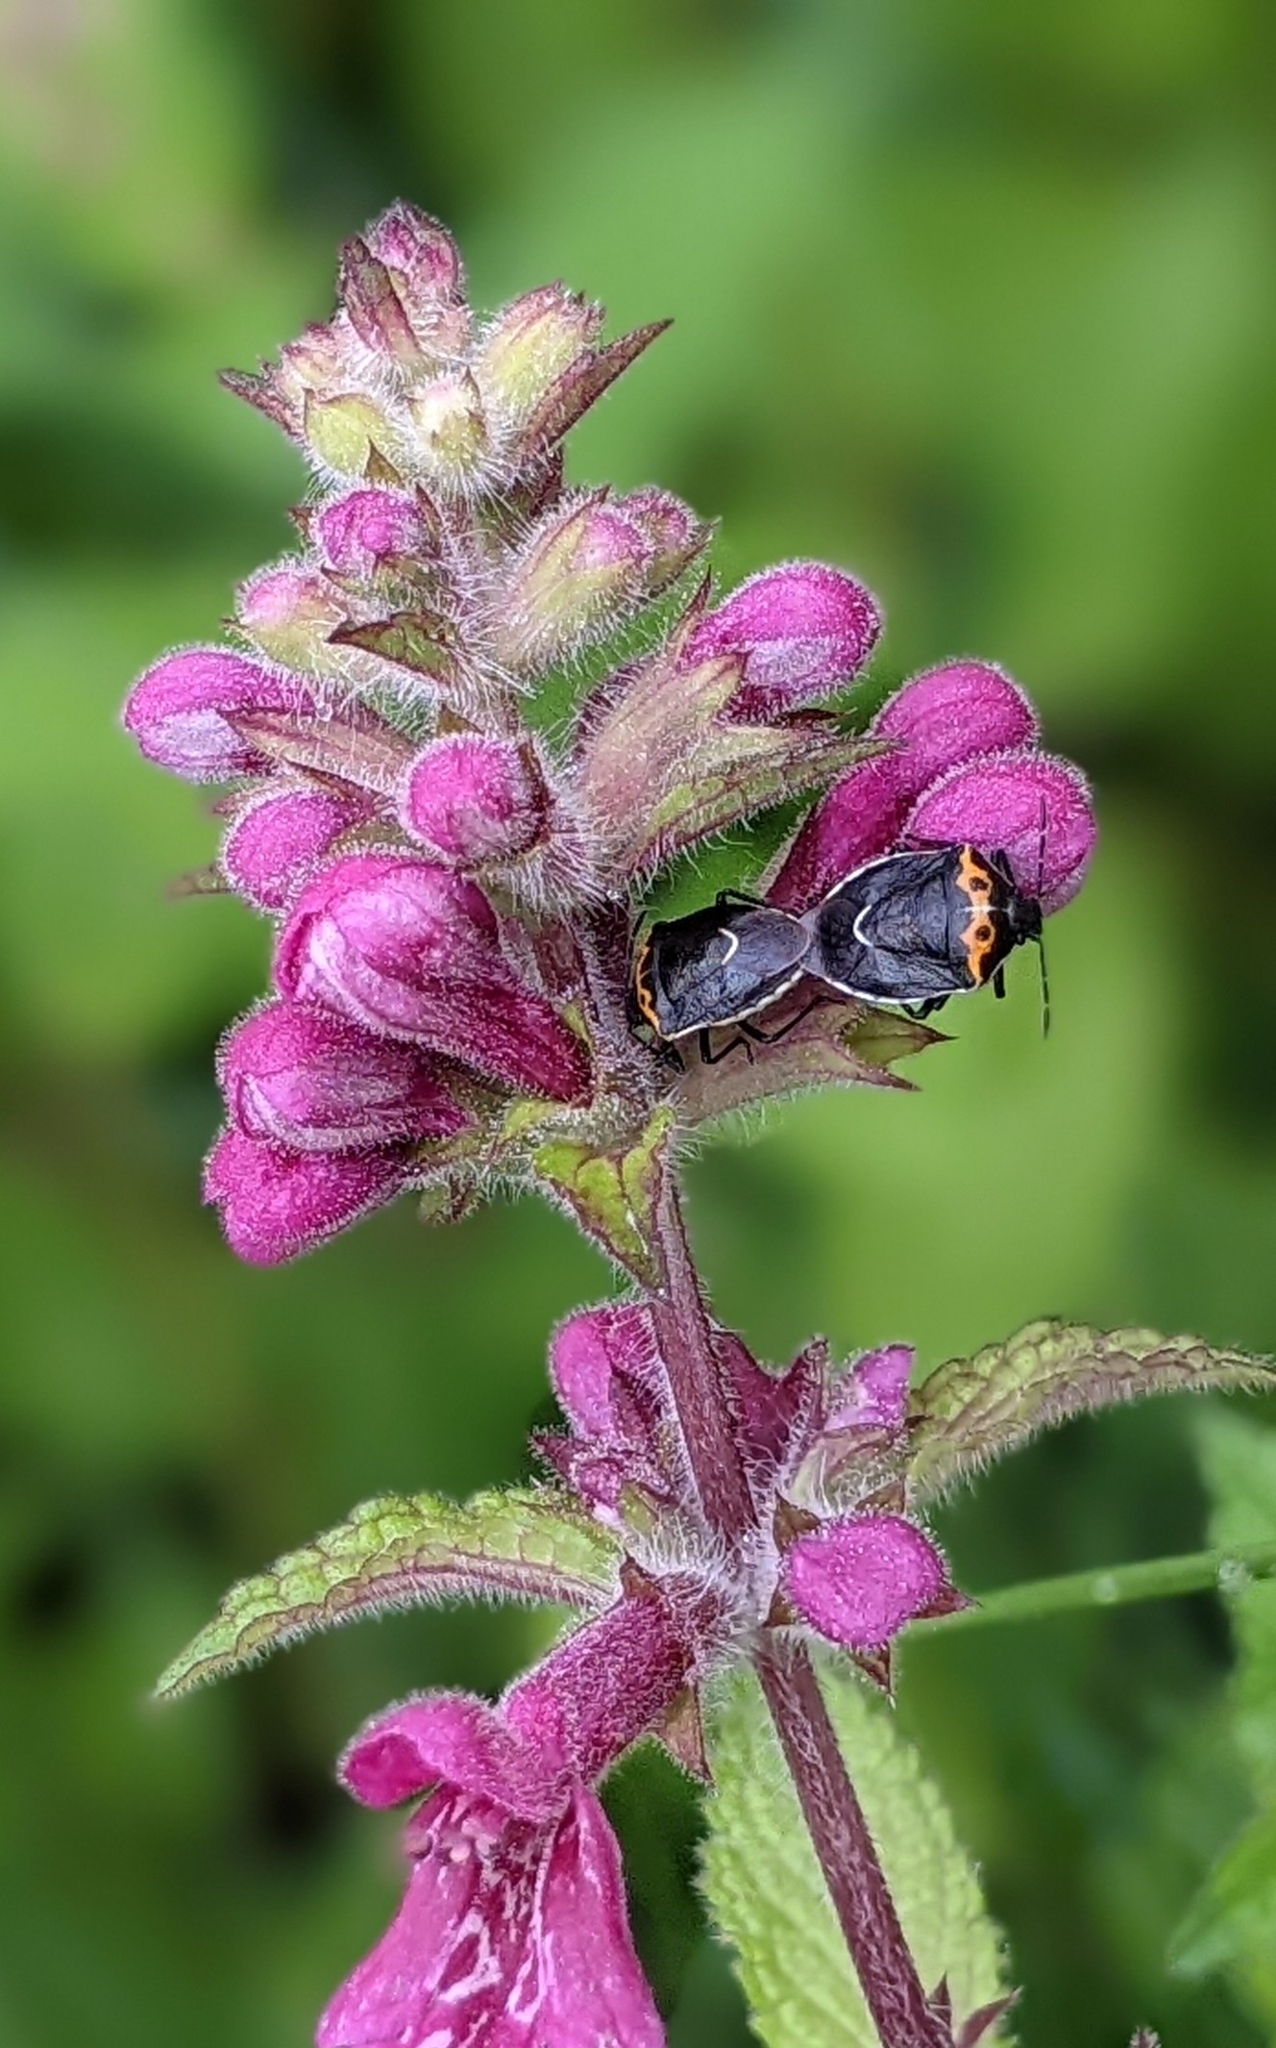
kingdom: Animalia
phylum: Arthropoda
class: Insecta
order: Hemiptera
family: Pentatomidae
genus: Cosmopepla
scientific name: Cosmopepla conspicillaris
